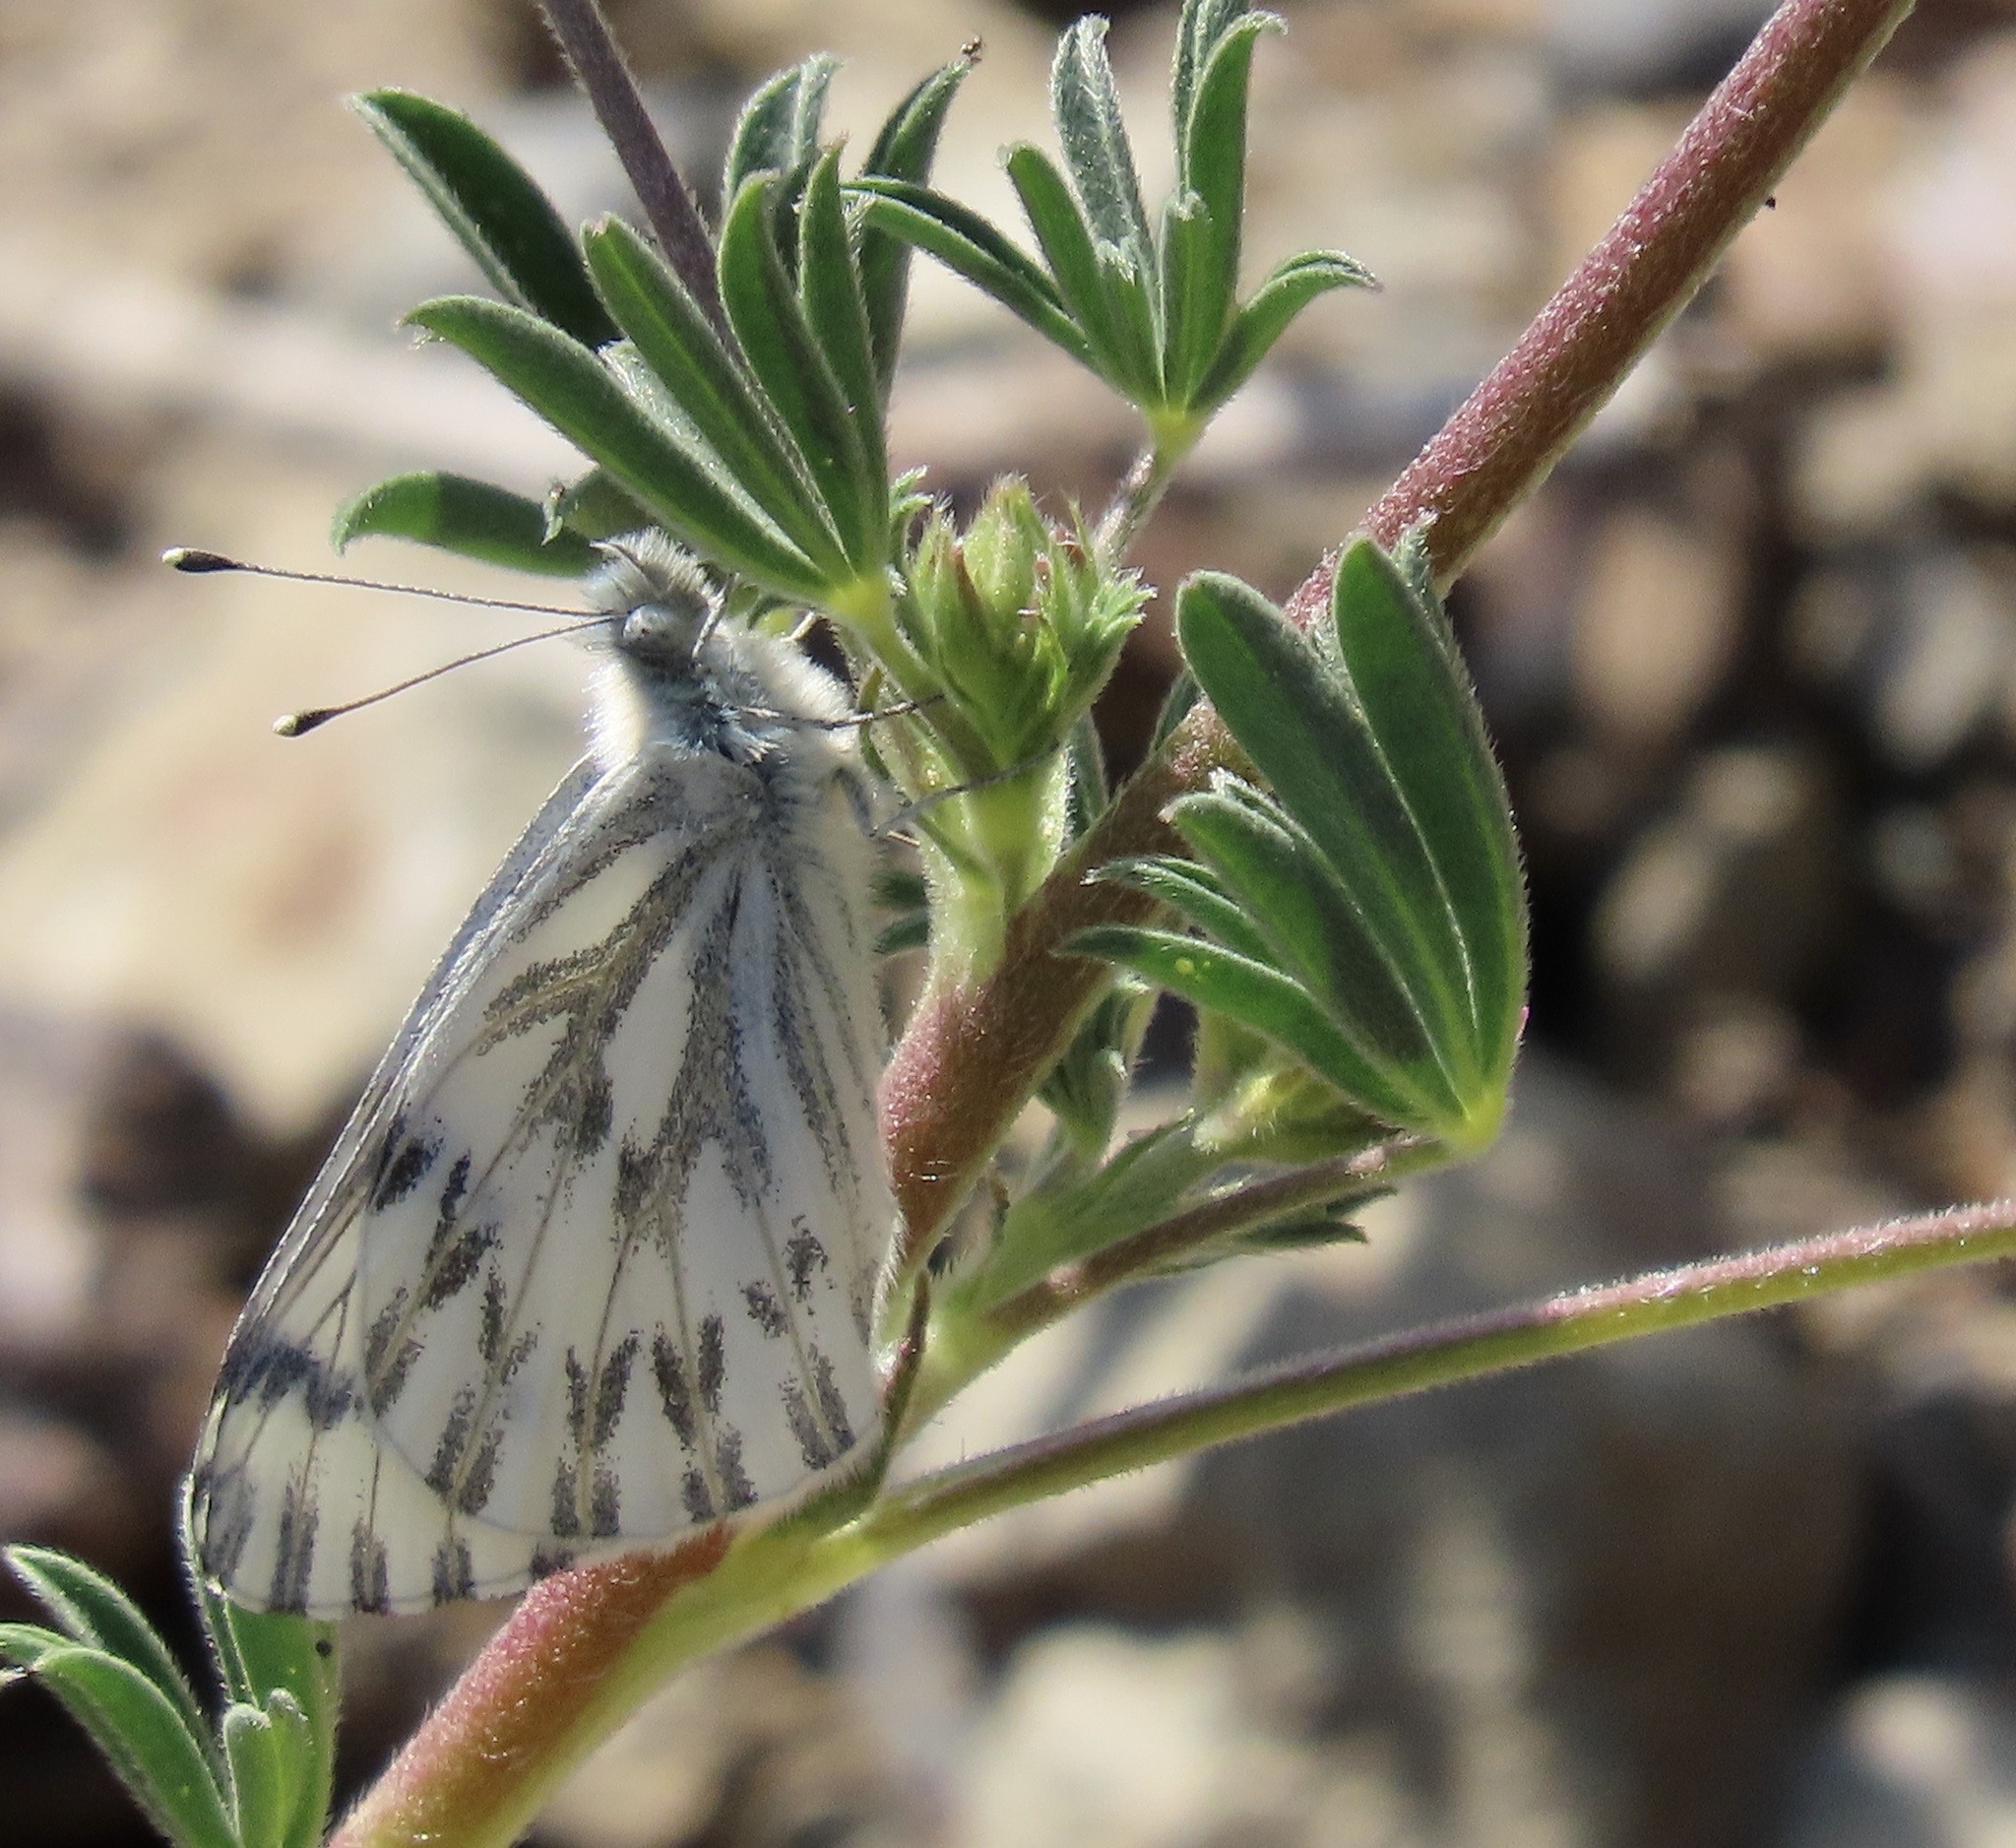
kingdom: Animalia
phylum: Arthropoda
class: Insecta
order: Lepidoptera
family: Pieridae
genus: Pontia
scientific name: Pontia sisymbrii
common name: California white
